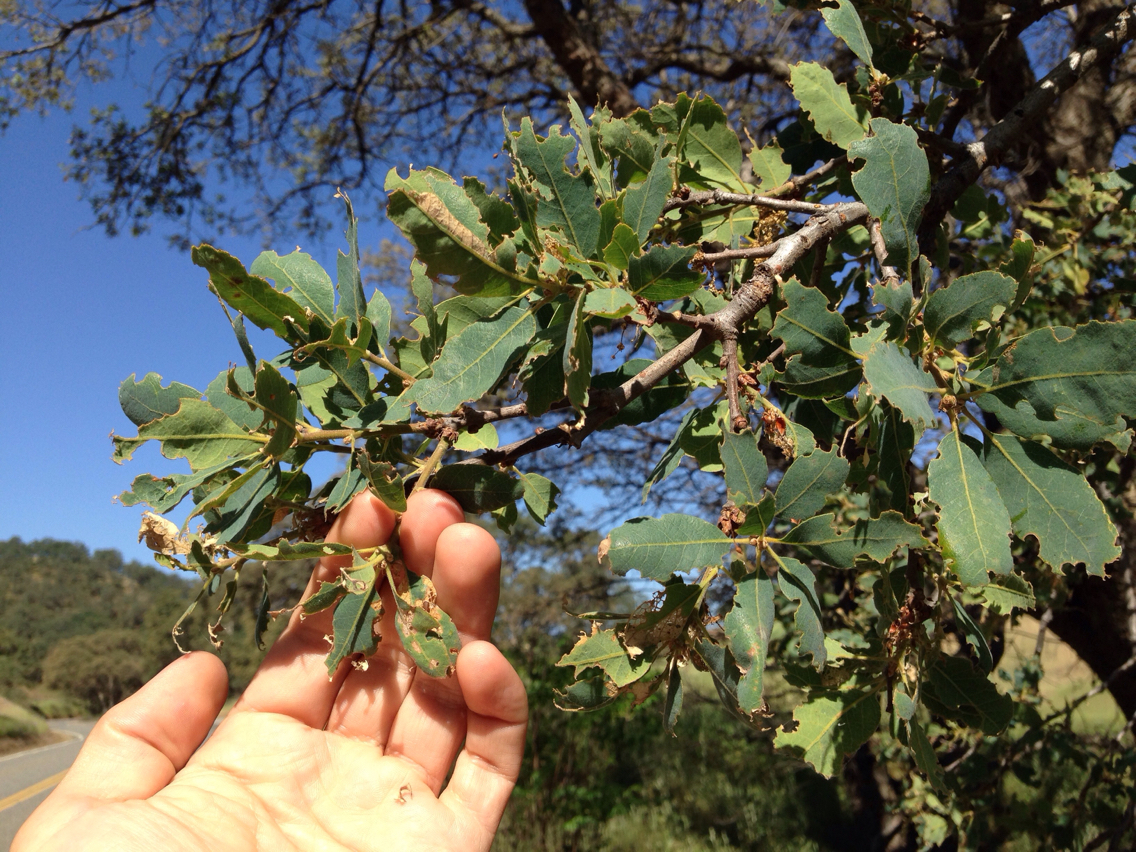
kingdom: Plantae
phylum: Tracheophyta
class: Magnoliopsida
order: Fagales
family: Fagaceae
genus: Quercus
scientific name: Quercus douglasii
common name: Blue oak
